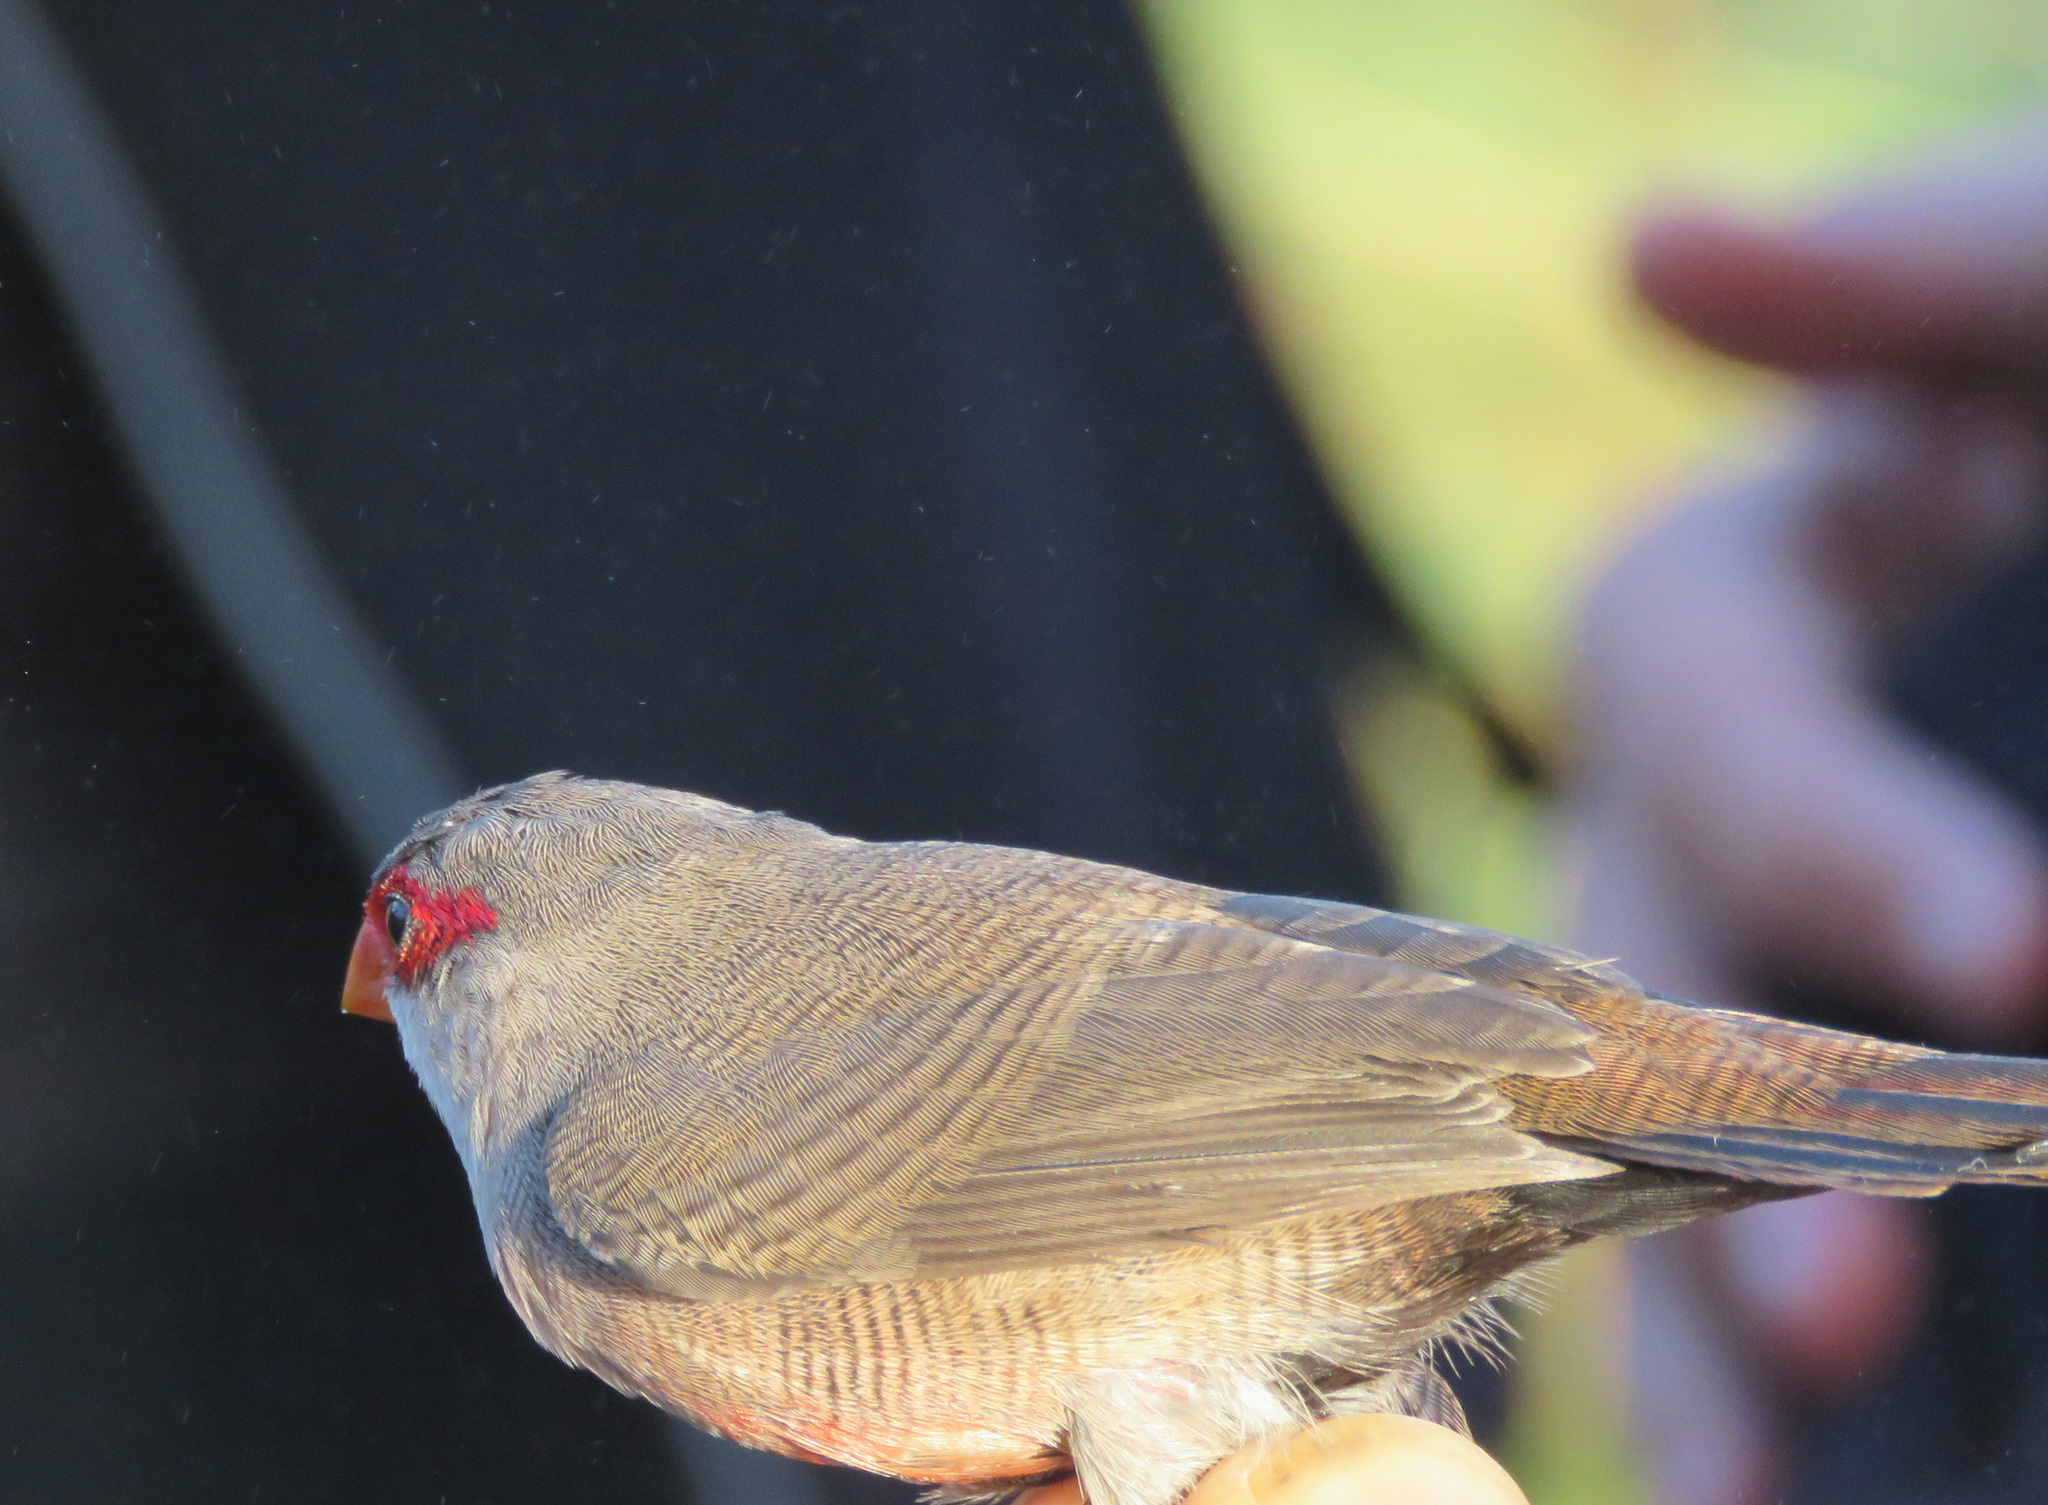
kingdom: Animalia
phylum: Chordata
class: Aves
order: Passeriformes
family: Estrildidae
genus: Estrilda
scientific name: Estrilda astrild
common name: Common waxbill
